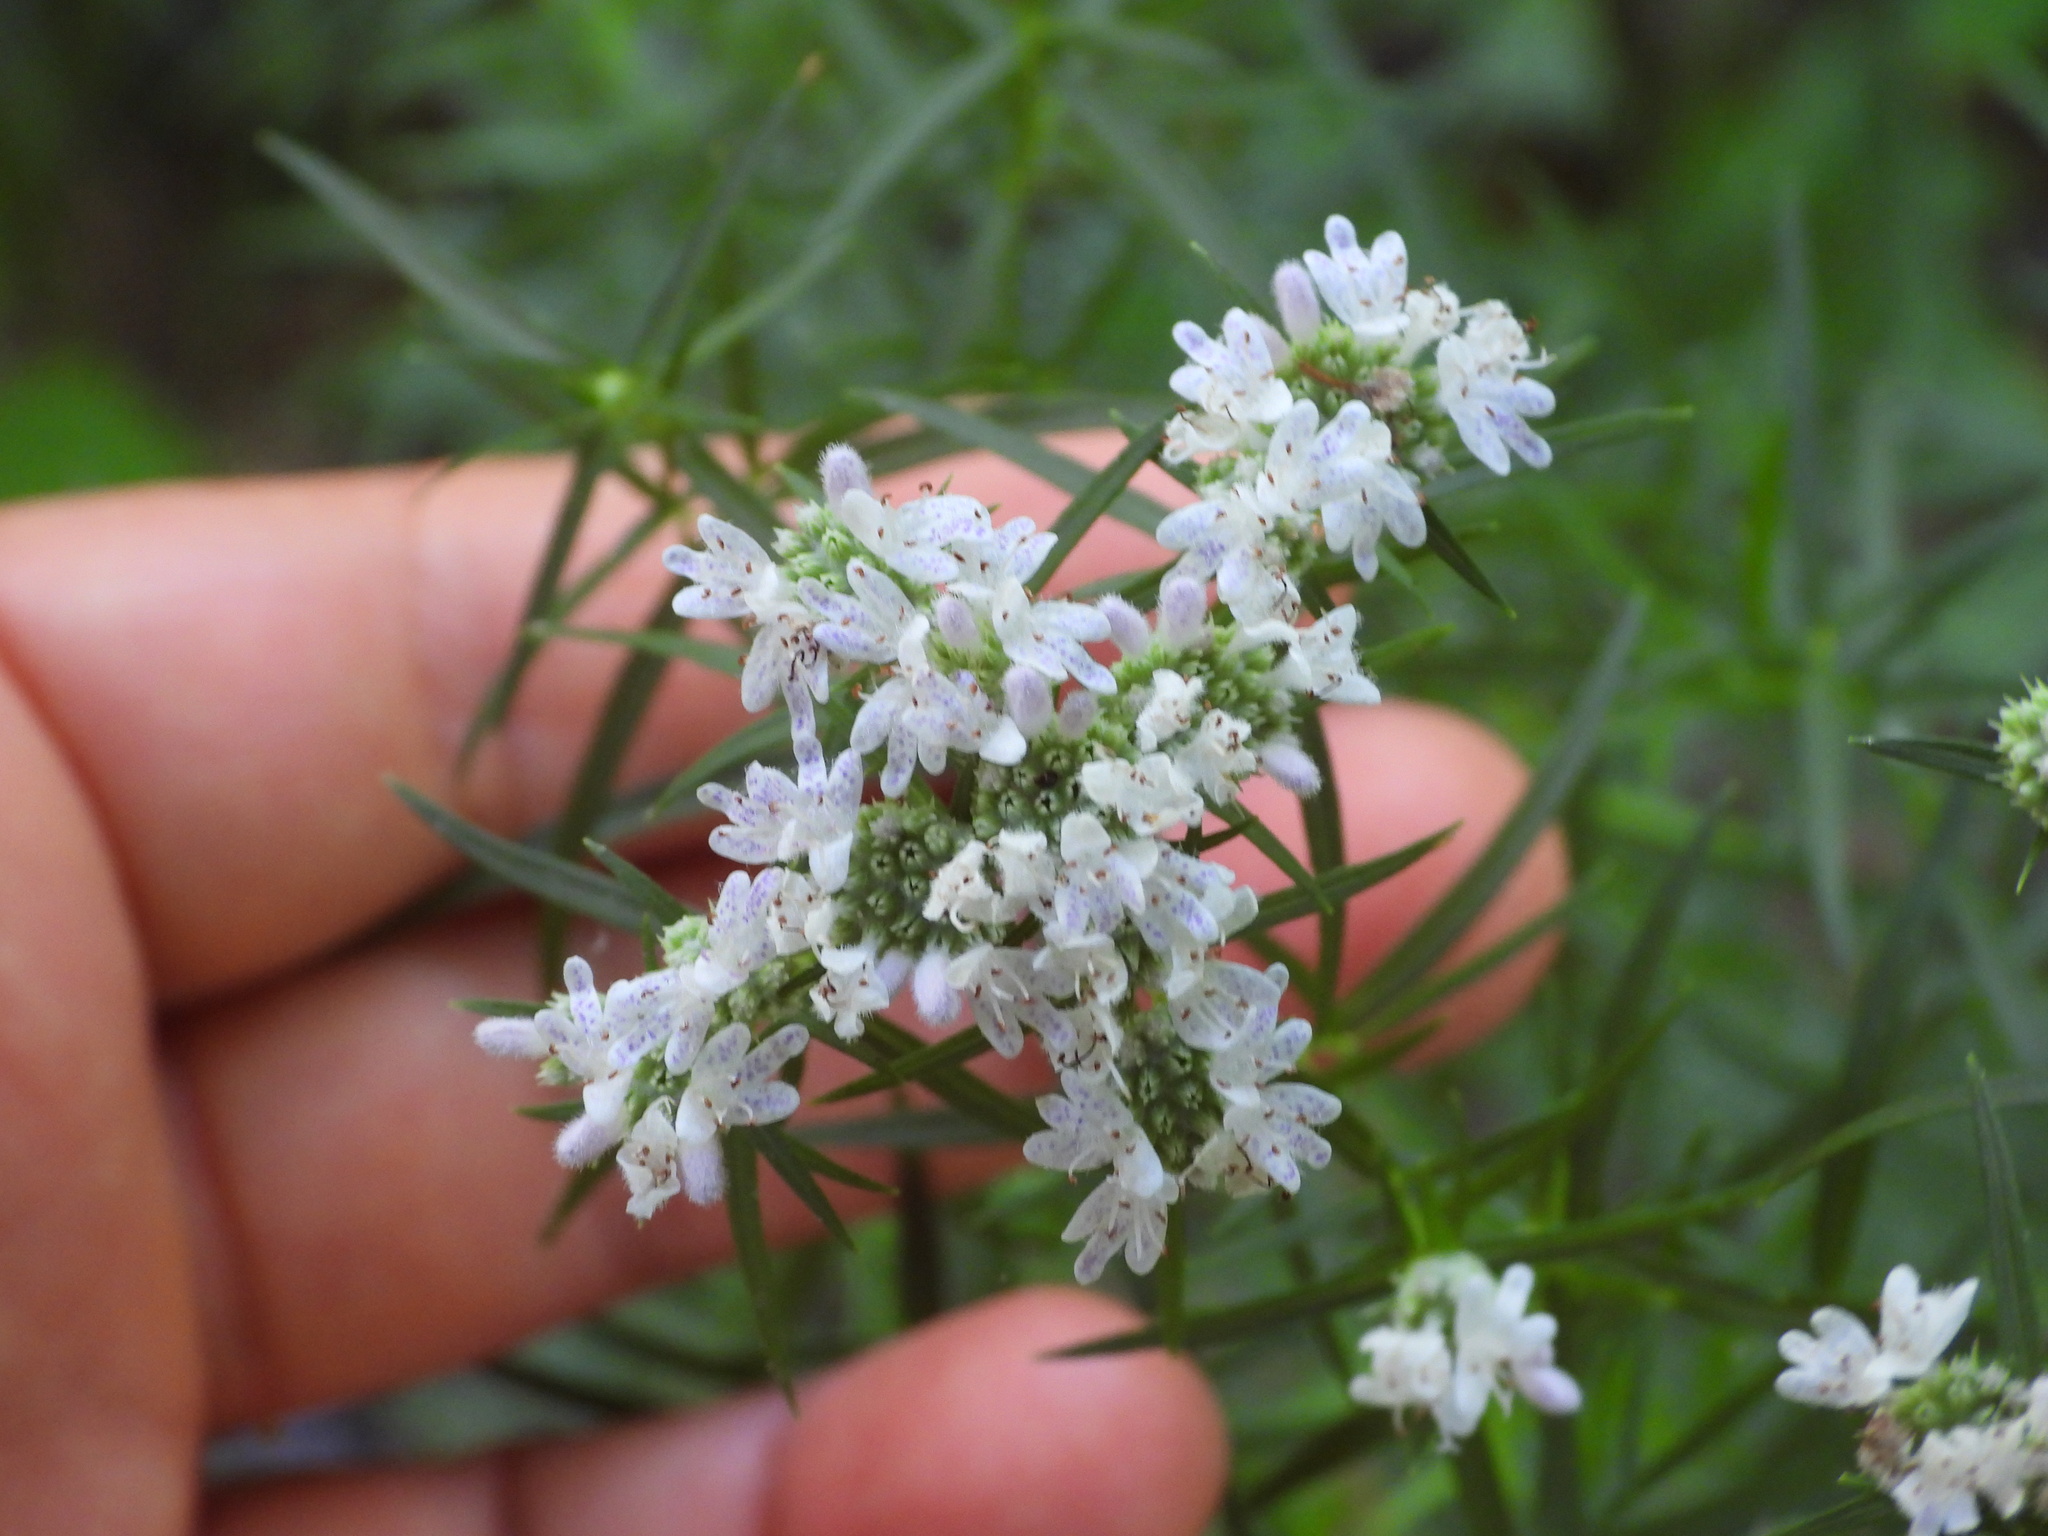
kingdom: Plantae
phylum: Tracheophyta
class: Magnoliopsida
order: Lamiales
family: Lamiaceae
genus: Pycnanthemum
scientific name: Pycnanthemum tenuifolium
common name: Narrow-leaf mountain-mint
